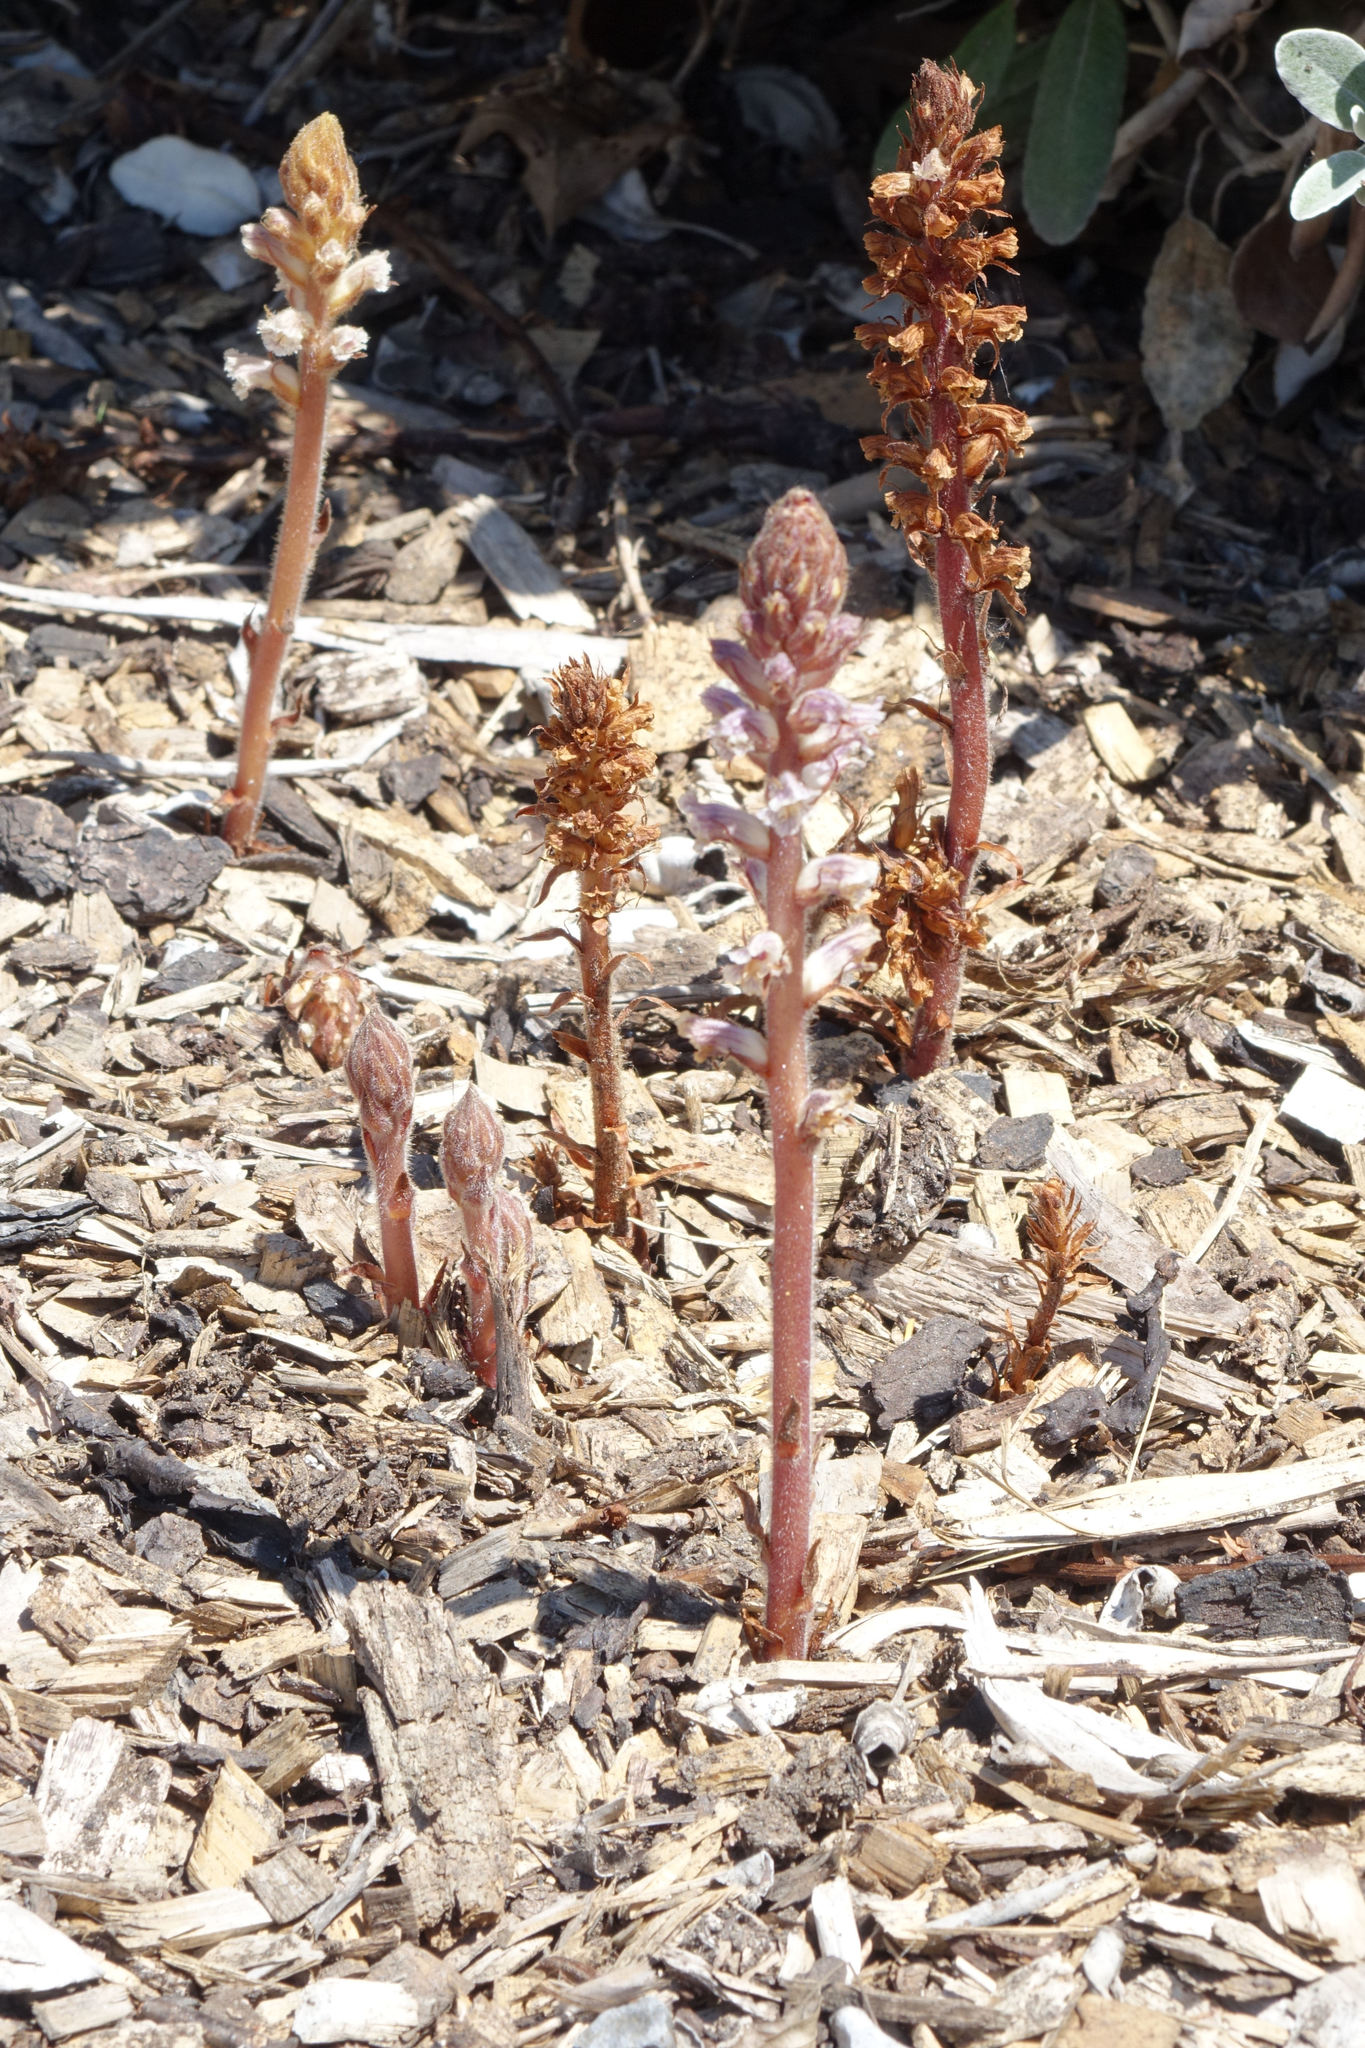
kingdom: Plantae
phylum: Tracheophyta
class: Magnoliopsida
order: Lamiales
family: Orobanchaceae
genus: Orobanche
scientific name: Orobanche minor
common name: Common broomrape
